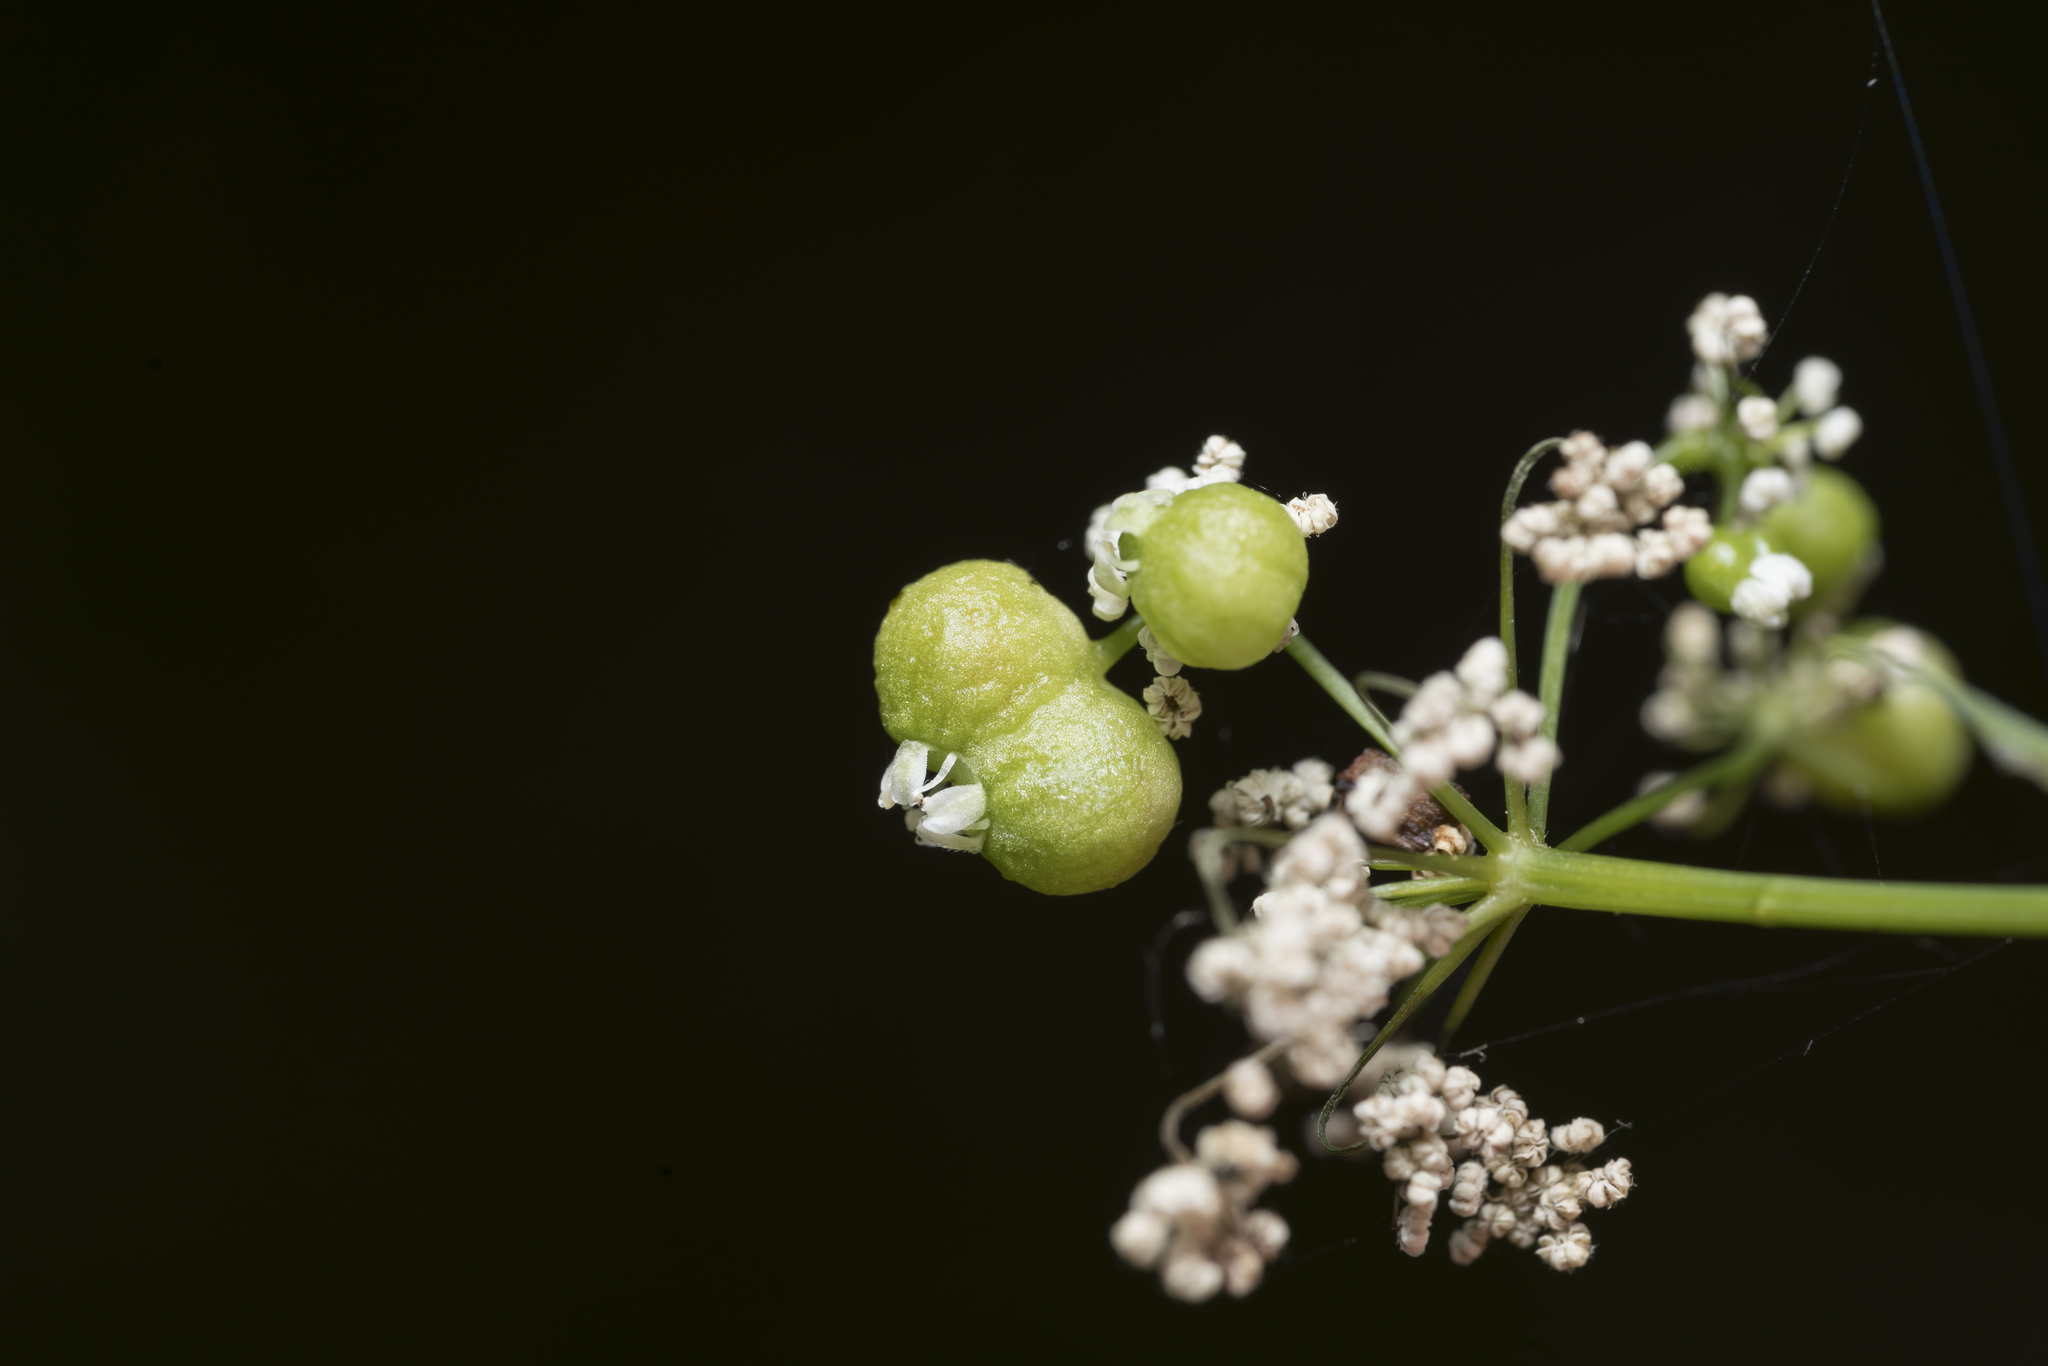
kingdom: Animalia
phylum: Arthropoda
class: Insecta
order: Diptera
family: Cecidomyiidae
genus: Kiefferia
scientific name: Kiefferia pericarpiicola
